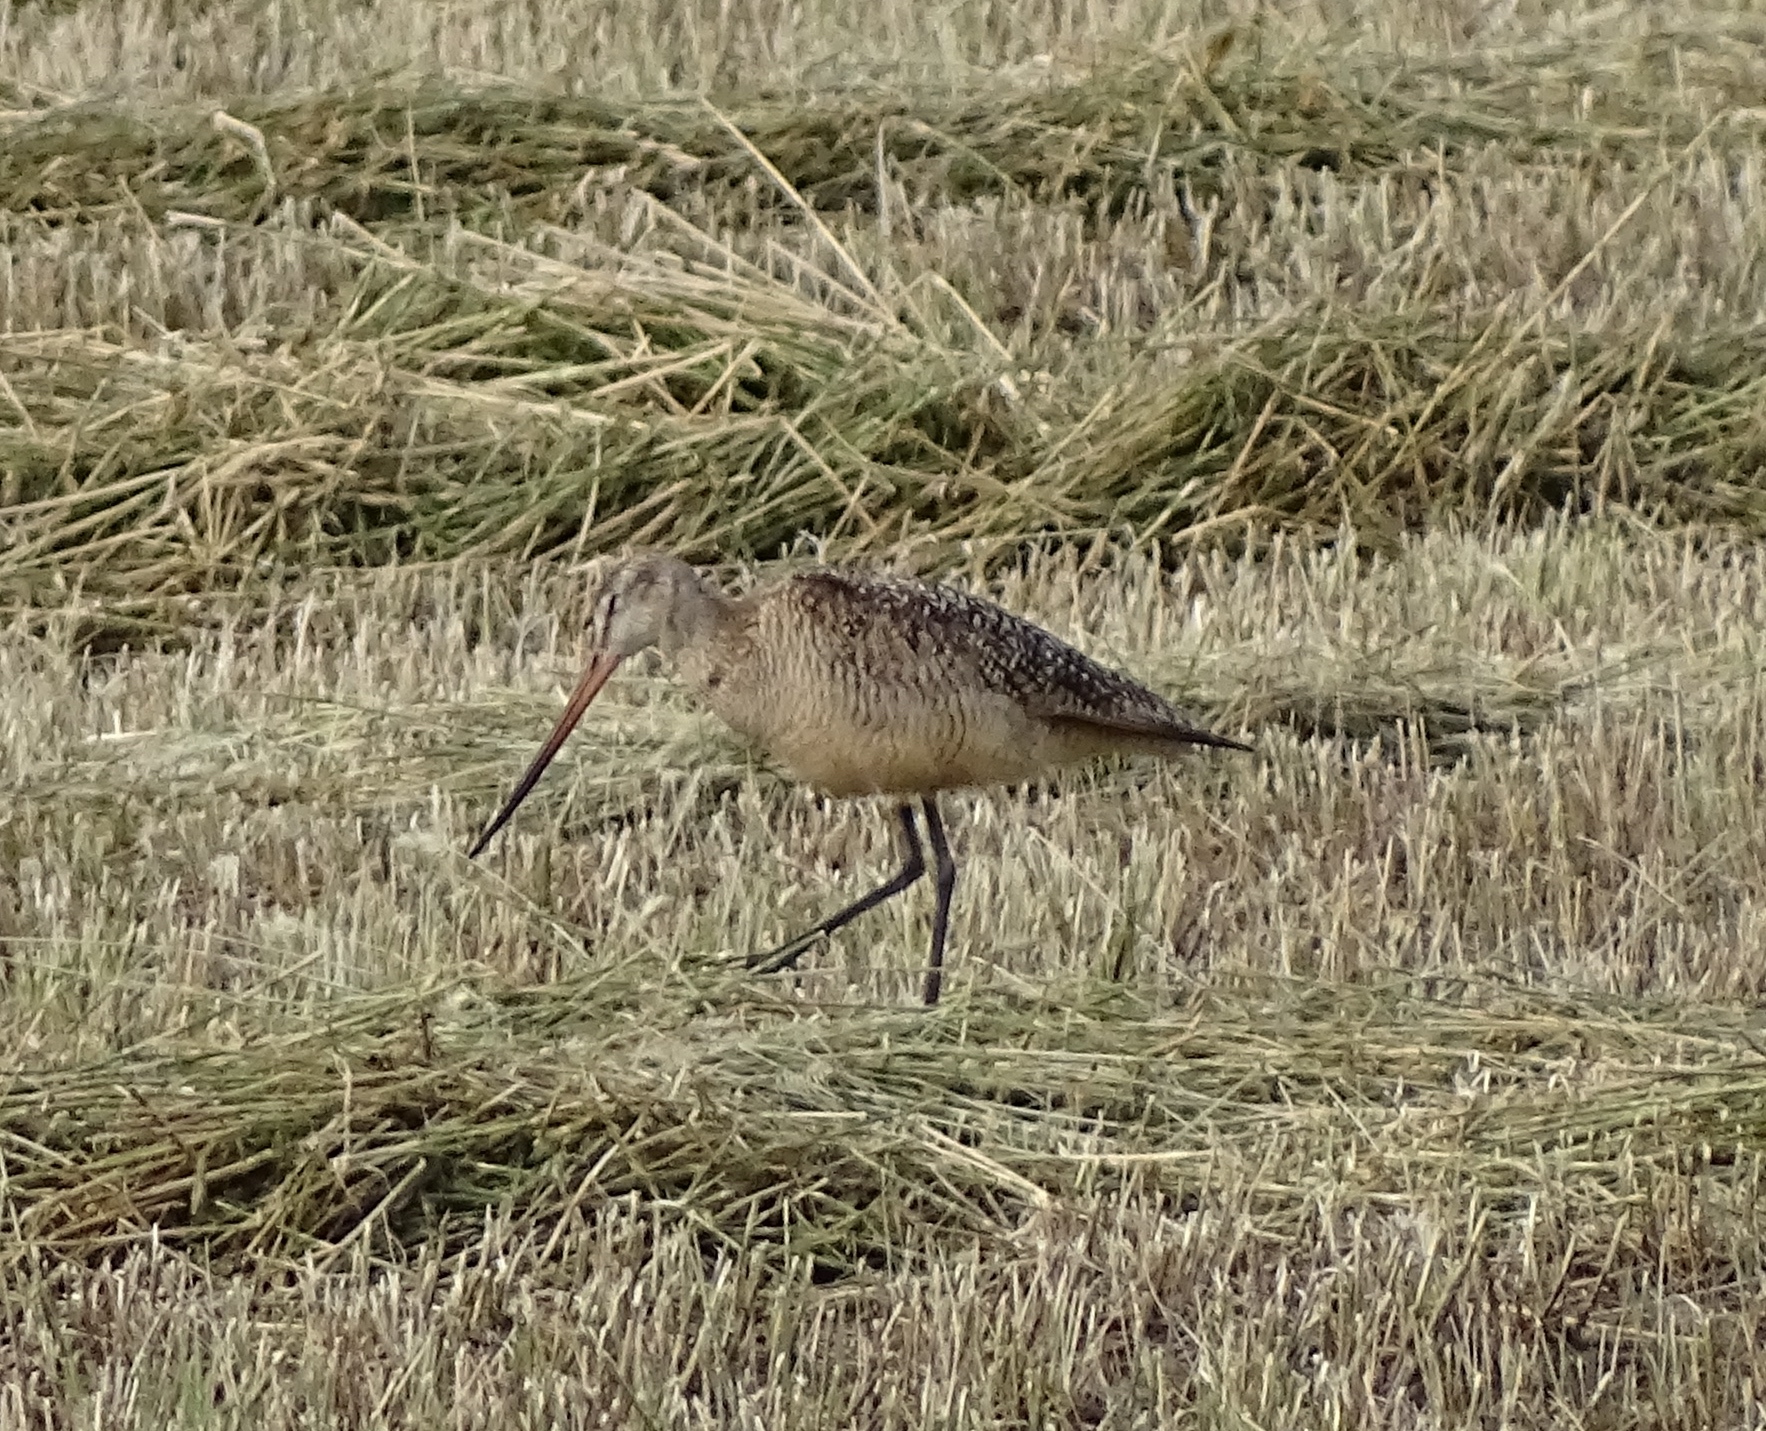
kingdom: Animalia
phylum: Chordata
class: Aves
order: Charadriiformes
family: Scolopacidae
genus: Limosa
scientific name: Limosa fedoa
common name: Marbled godwit
